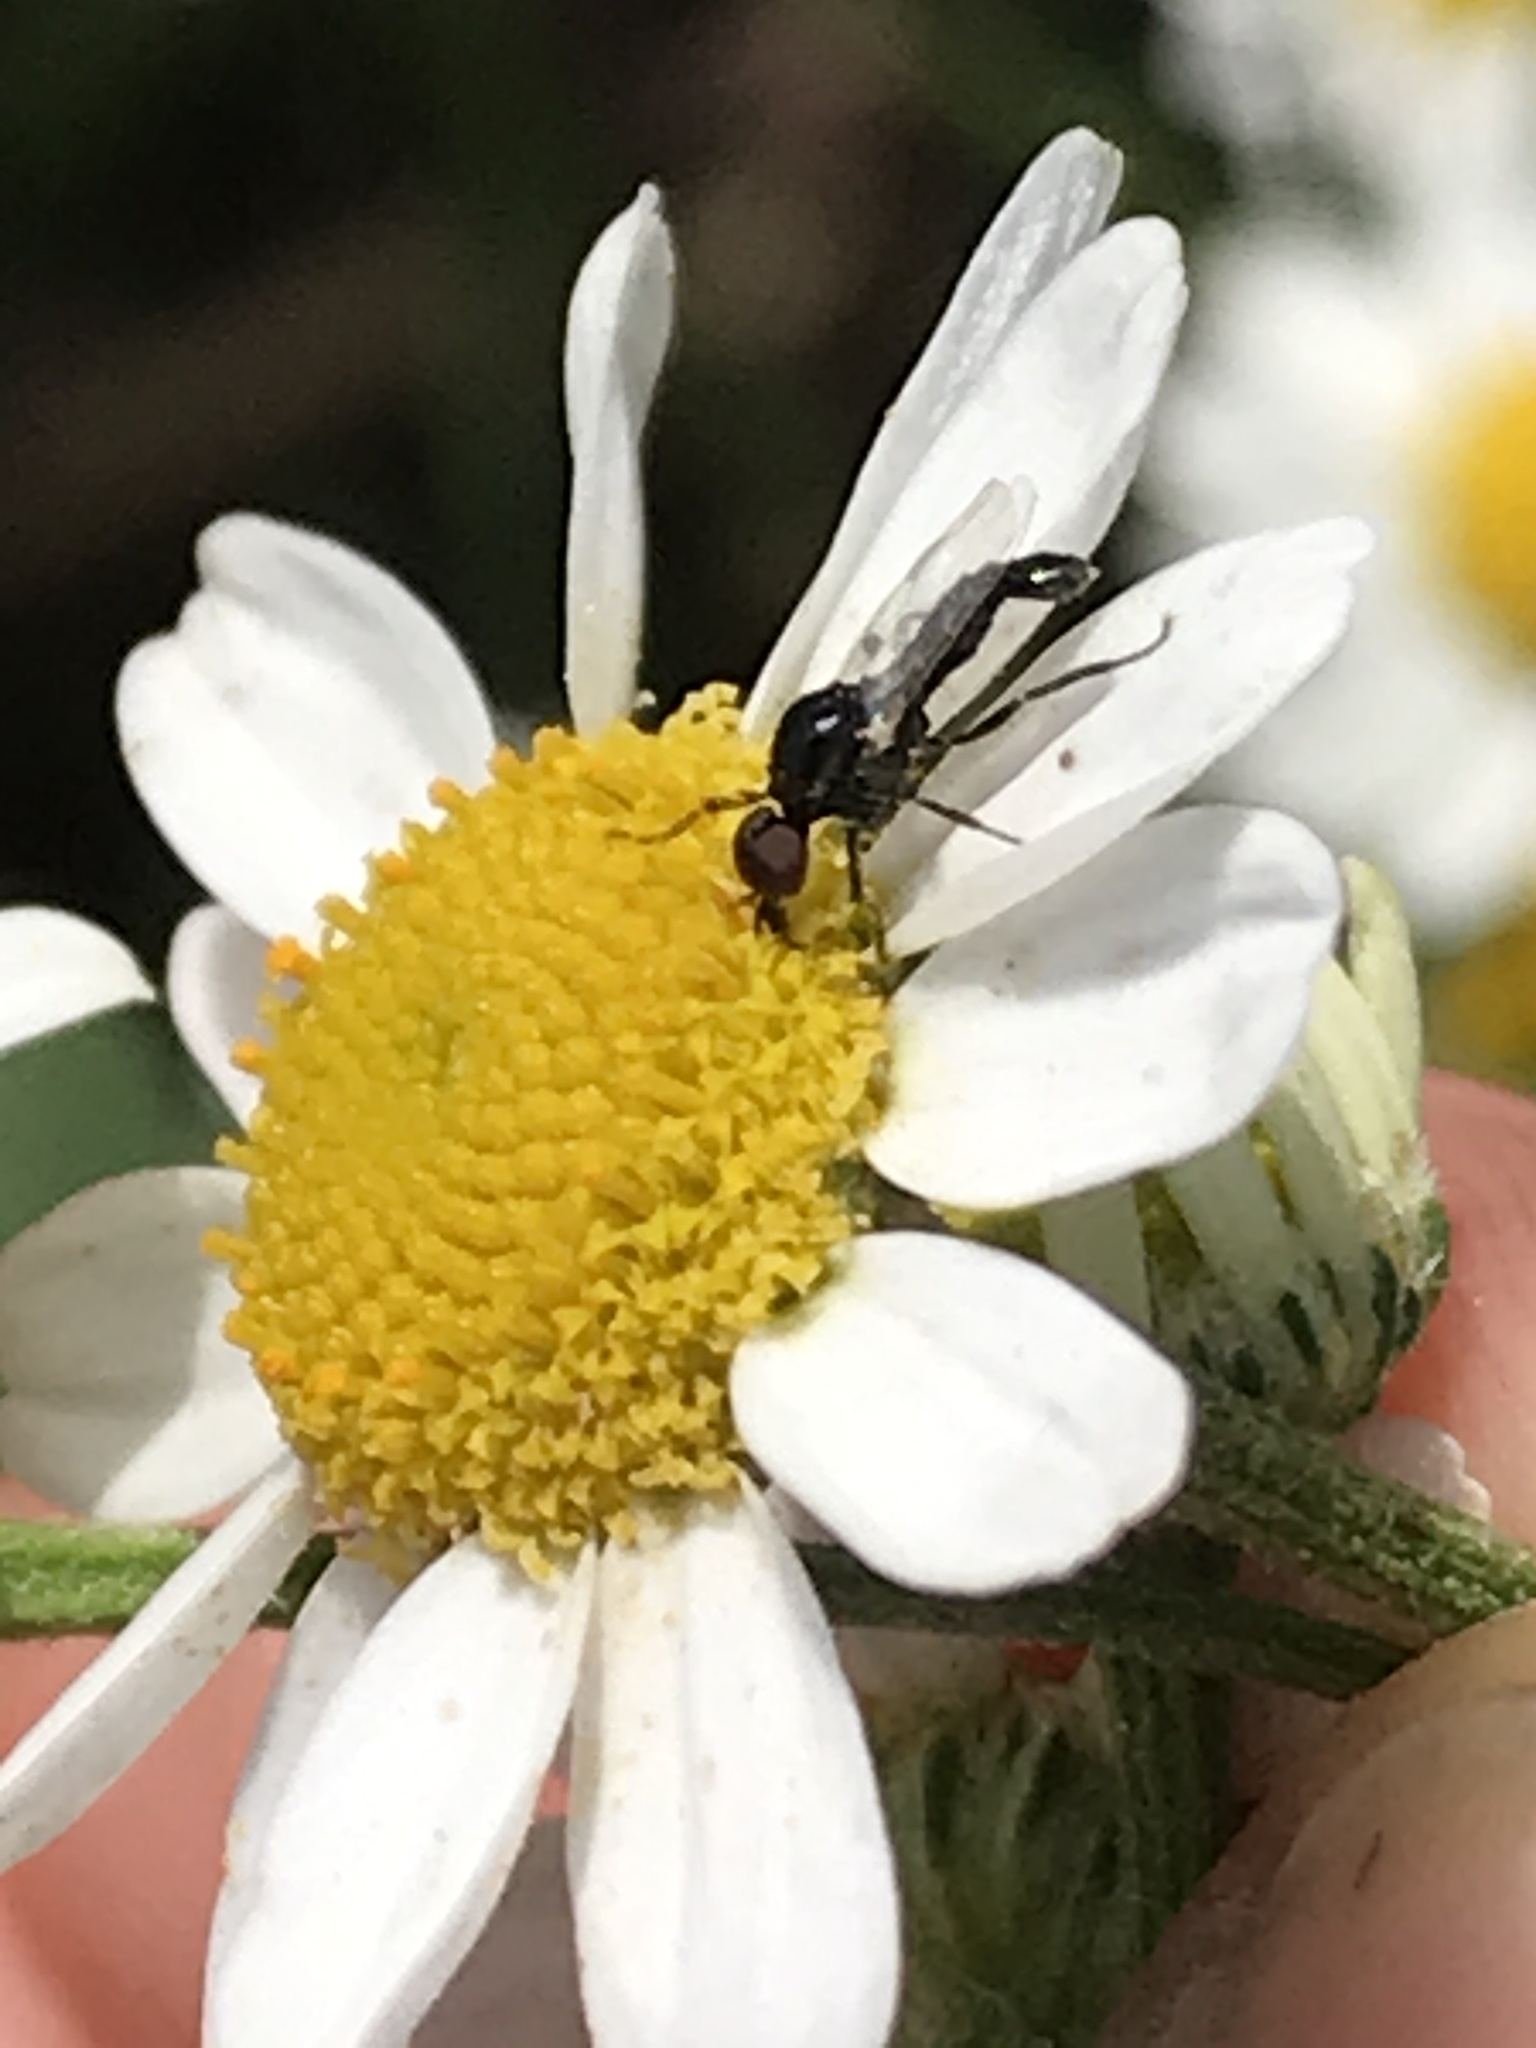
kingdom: Animalia
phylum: Arthropoda
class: Insecta
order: Diptera
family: Bibionidae
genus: Dilophus
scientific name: Dilophus
